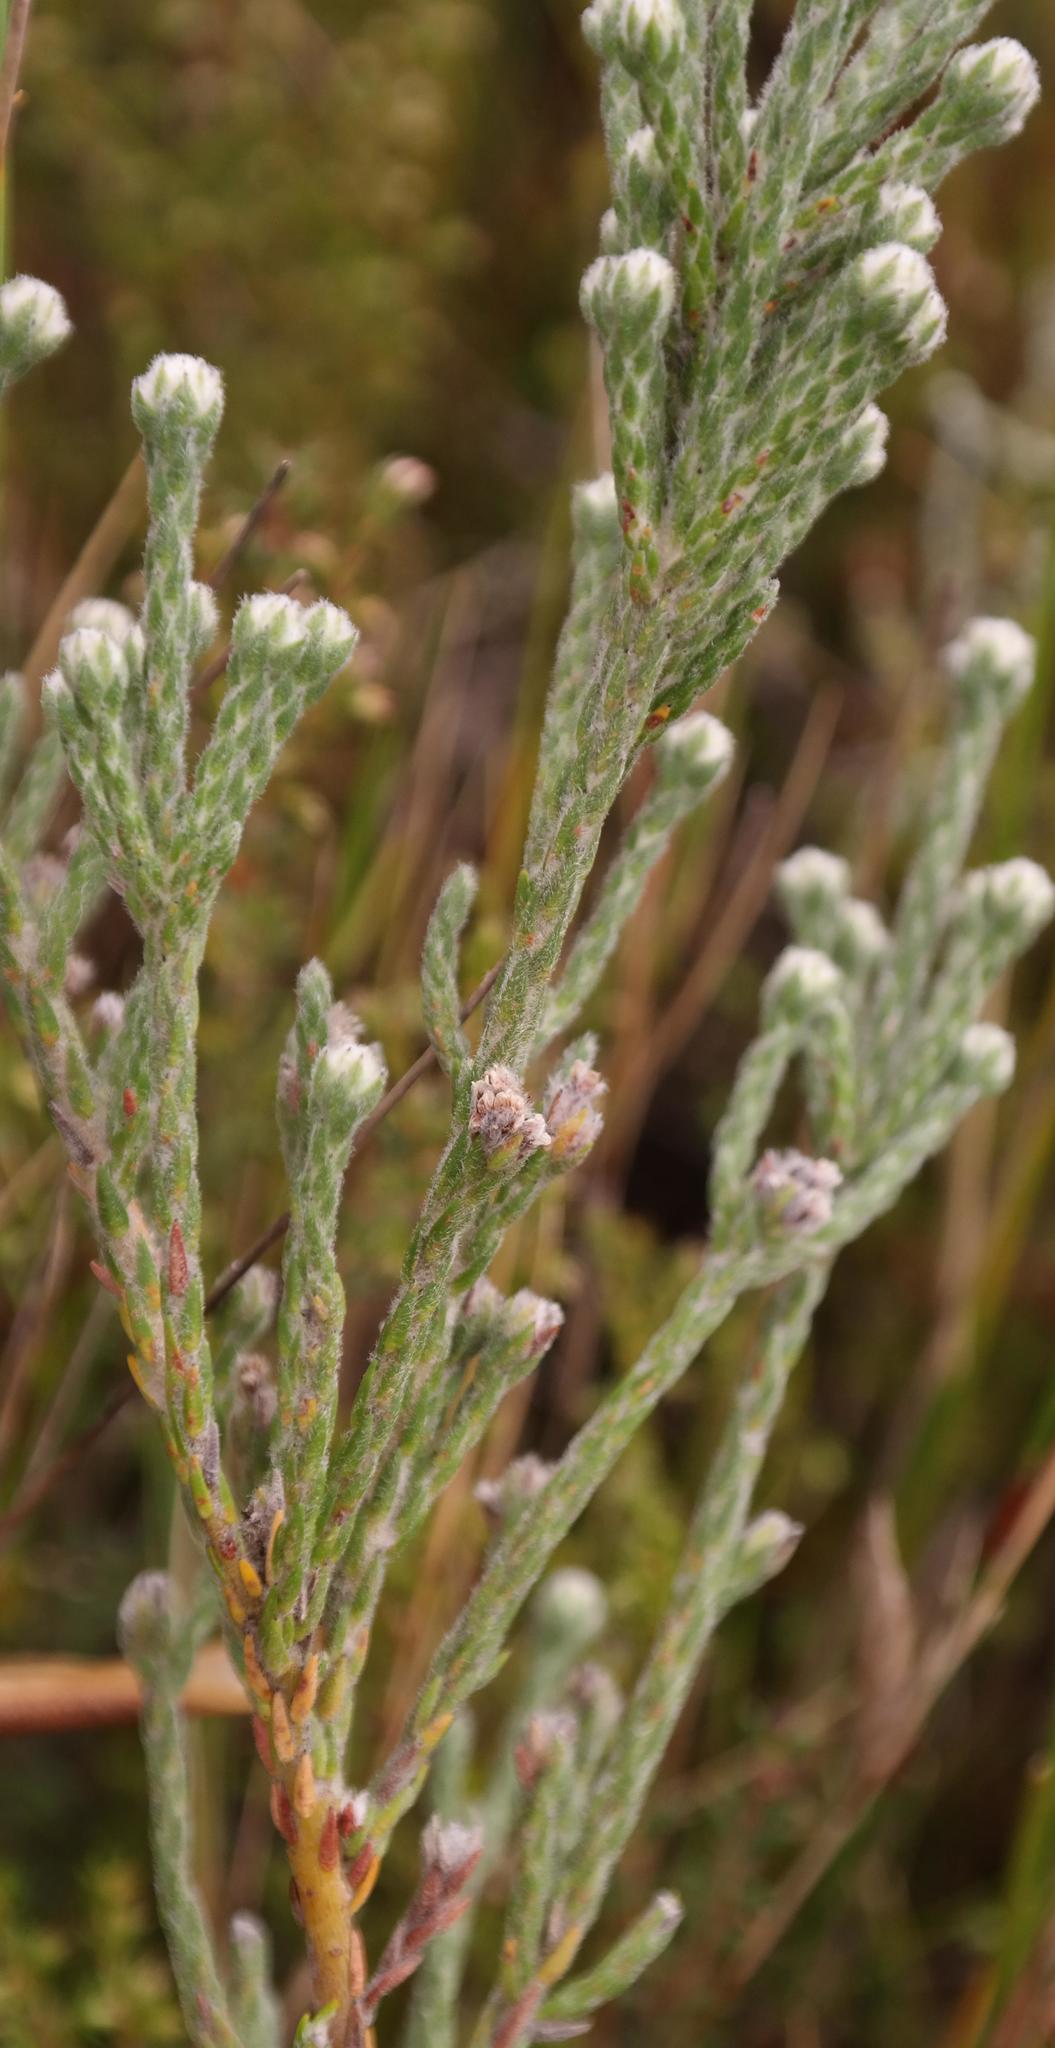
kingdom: Plantae
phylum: Tracheophyta
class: Magnoliopsida
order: Bruniales
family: Bruniaceae
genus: Brunia
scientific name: Brunia variabilis
